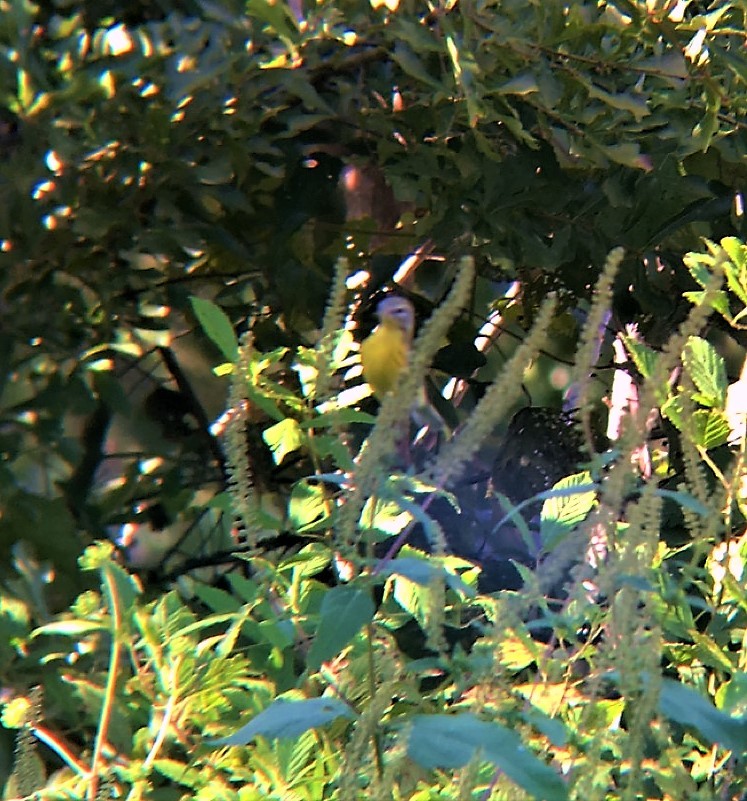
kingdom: Animalia
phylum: Chordata
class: Aves
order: Passeriformes
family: Parulidae
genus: Setophaga
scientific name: Setophaga discolor
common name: Prairie warbler
